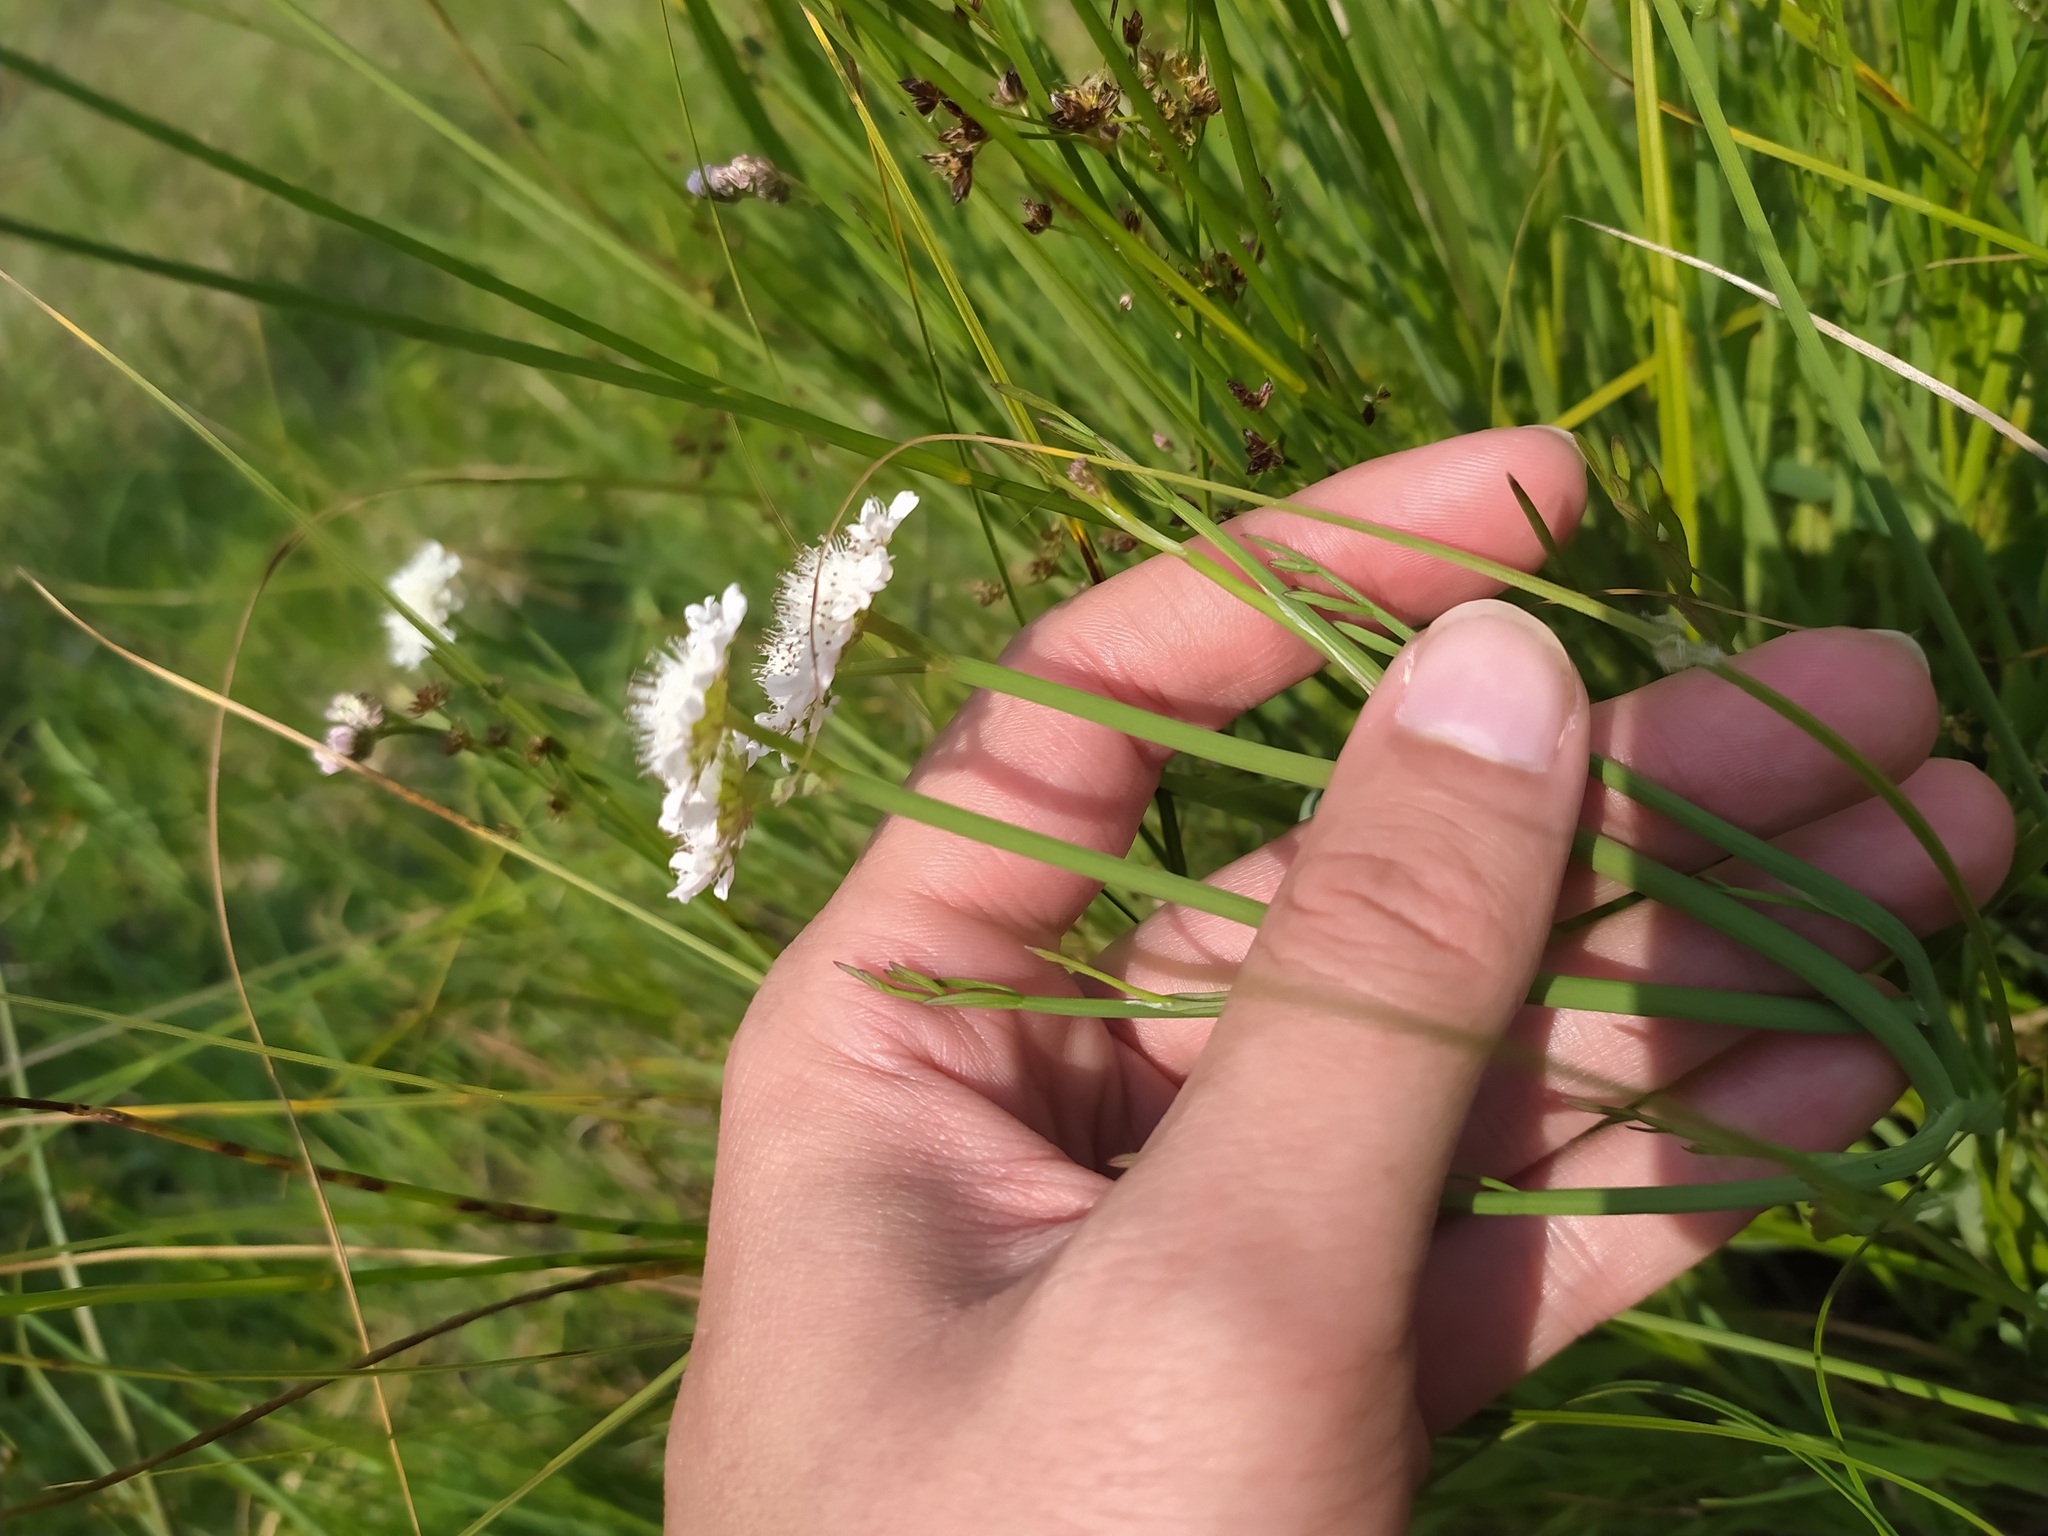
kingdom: Plantae
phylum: Tracheophyta
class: Magnoliopsida
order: Apiales
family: Apiaceae
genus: Oenanthe
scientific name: Oenanthe fistulosa
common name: Tubular water-dropwort
